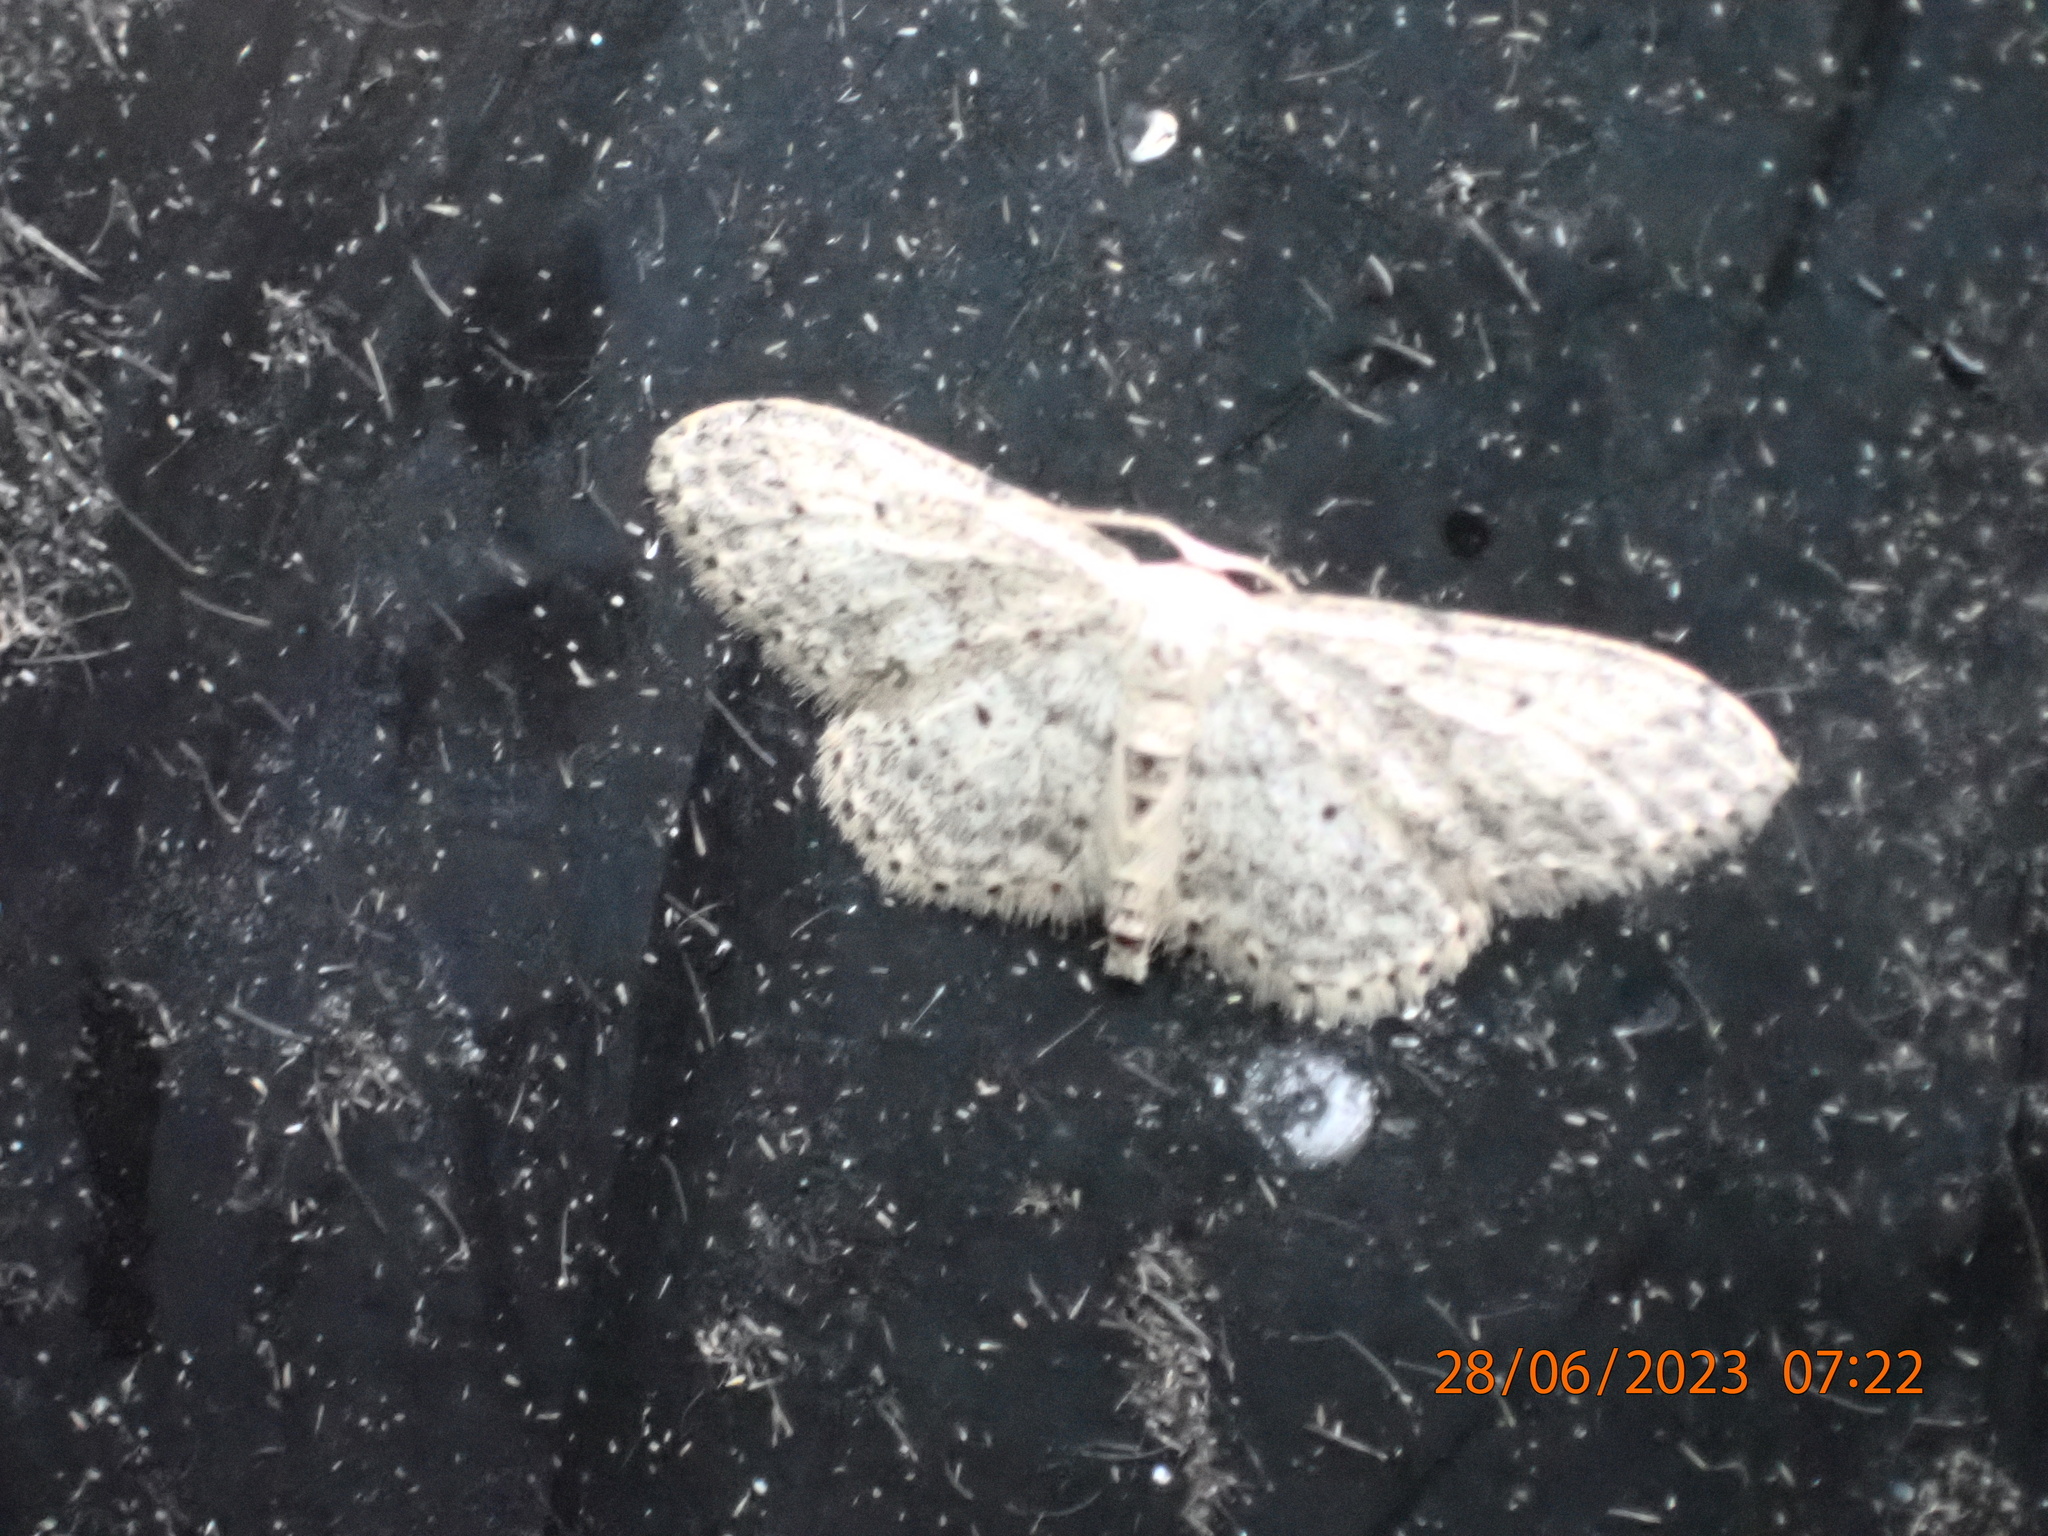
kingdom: Animalia
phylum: Arthropoda
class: Insecta
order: Lepidoptera
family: Geometridae
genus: Idaea
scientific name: Idaea seriata
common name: Small dusty wave
